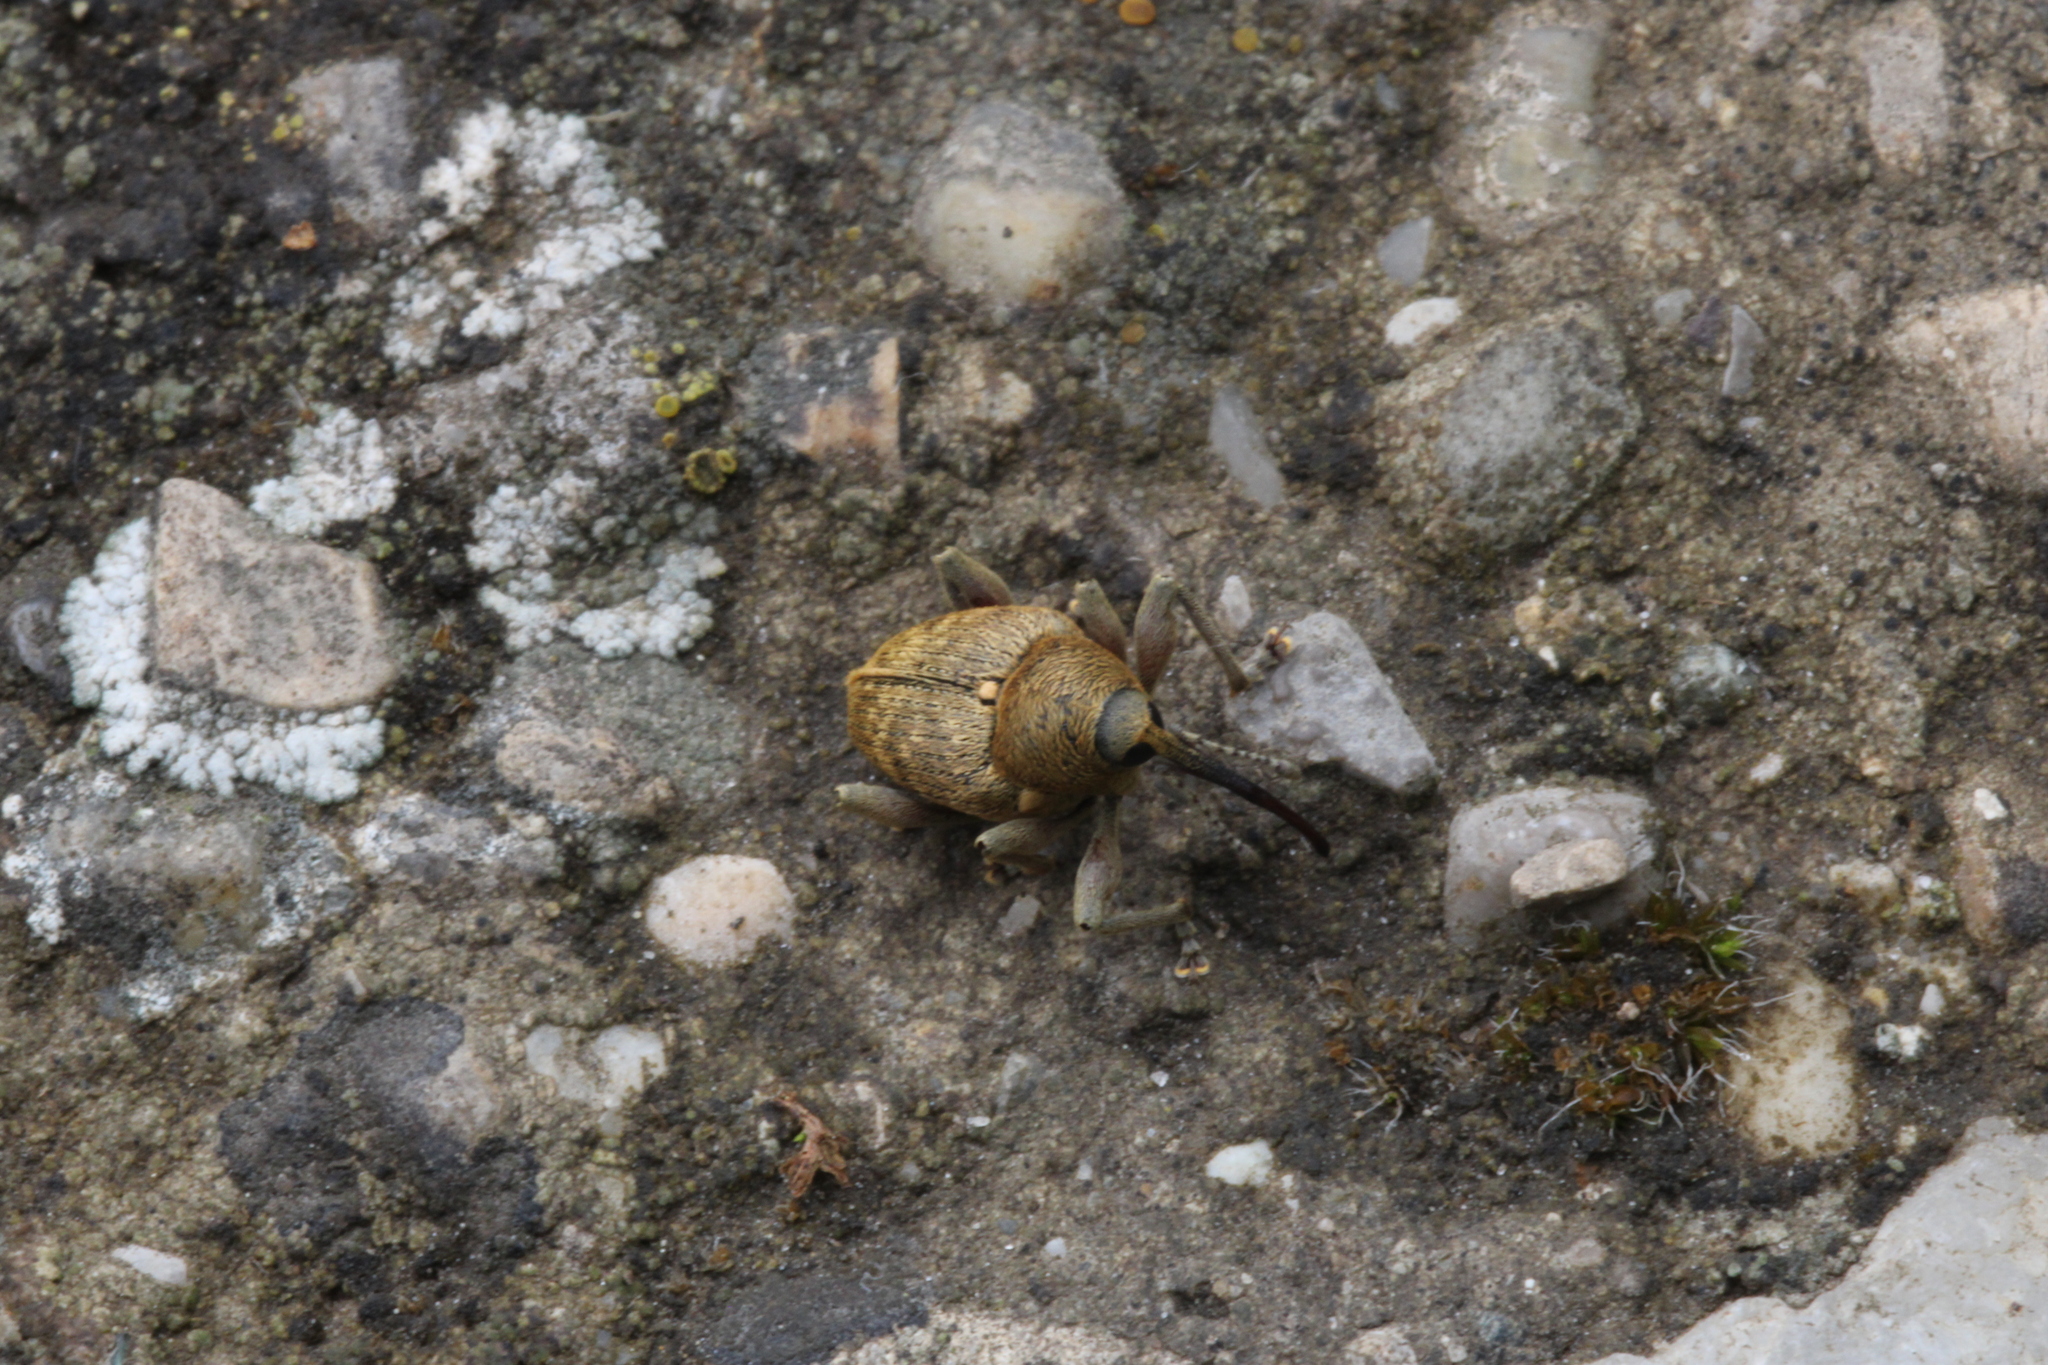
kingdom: Animalia
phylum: Arthropoda
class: Insecta
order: Coleoptera
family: Curculionidae
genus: Curculio
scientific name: Curculio nucum
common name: Nut weevil
